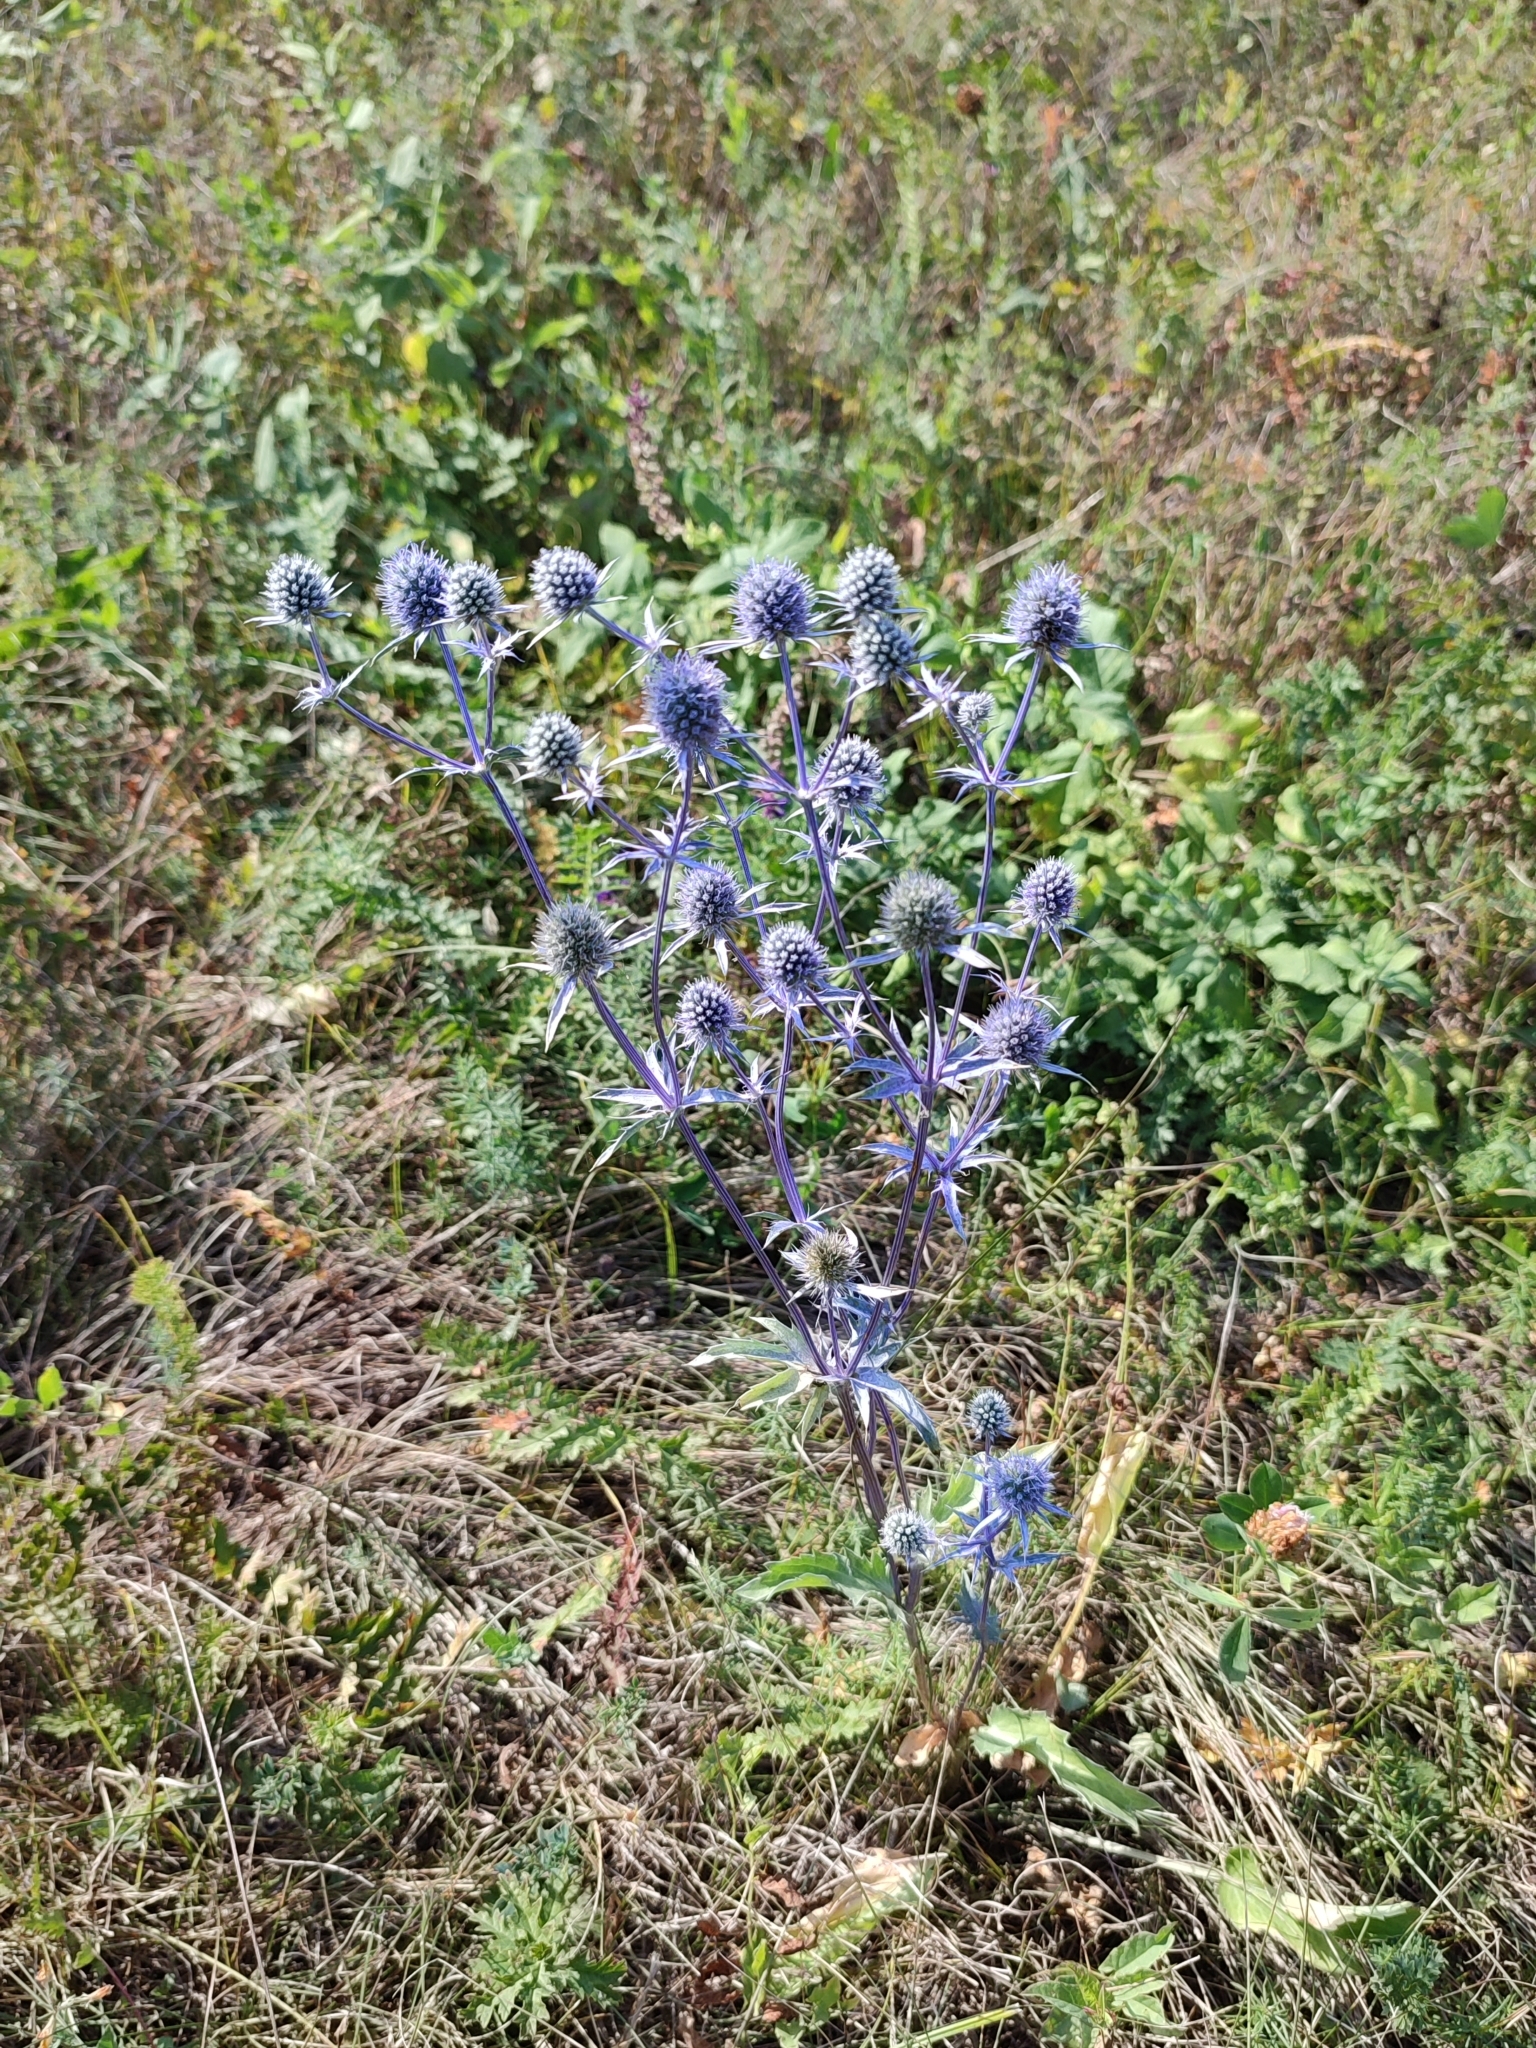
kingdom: Plantae
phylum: Tracheophyta
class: Magnoliopsida
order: Apiales
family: Apiaceae
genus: Eryngium
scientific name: Eryngium planum
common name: Blue eryngo
